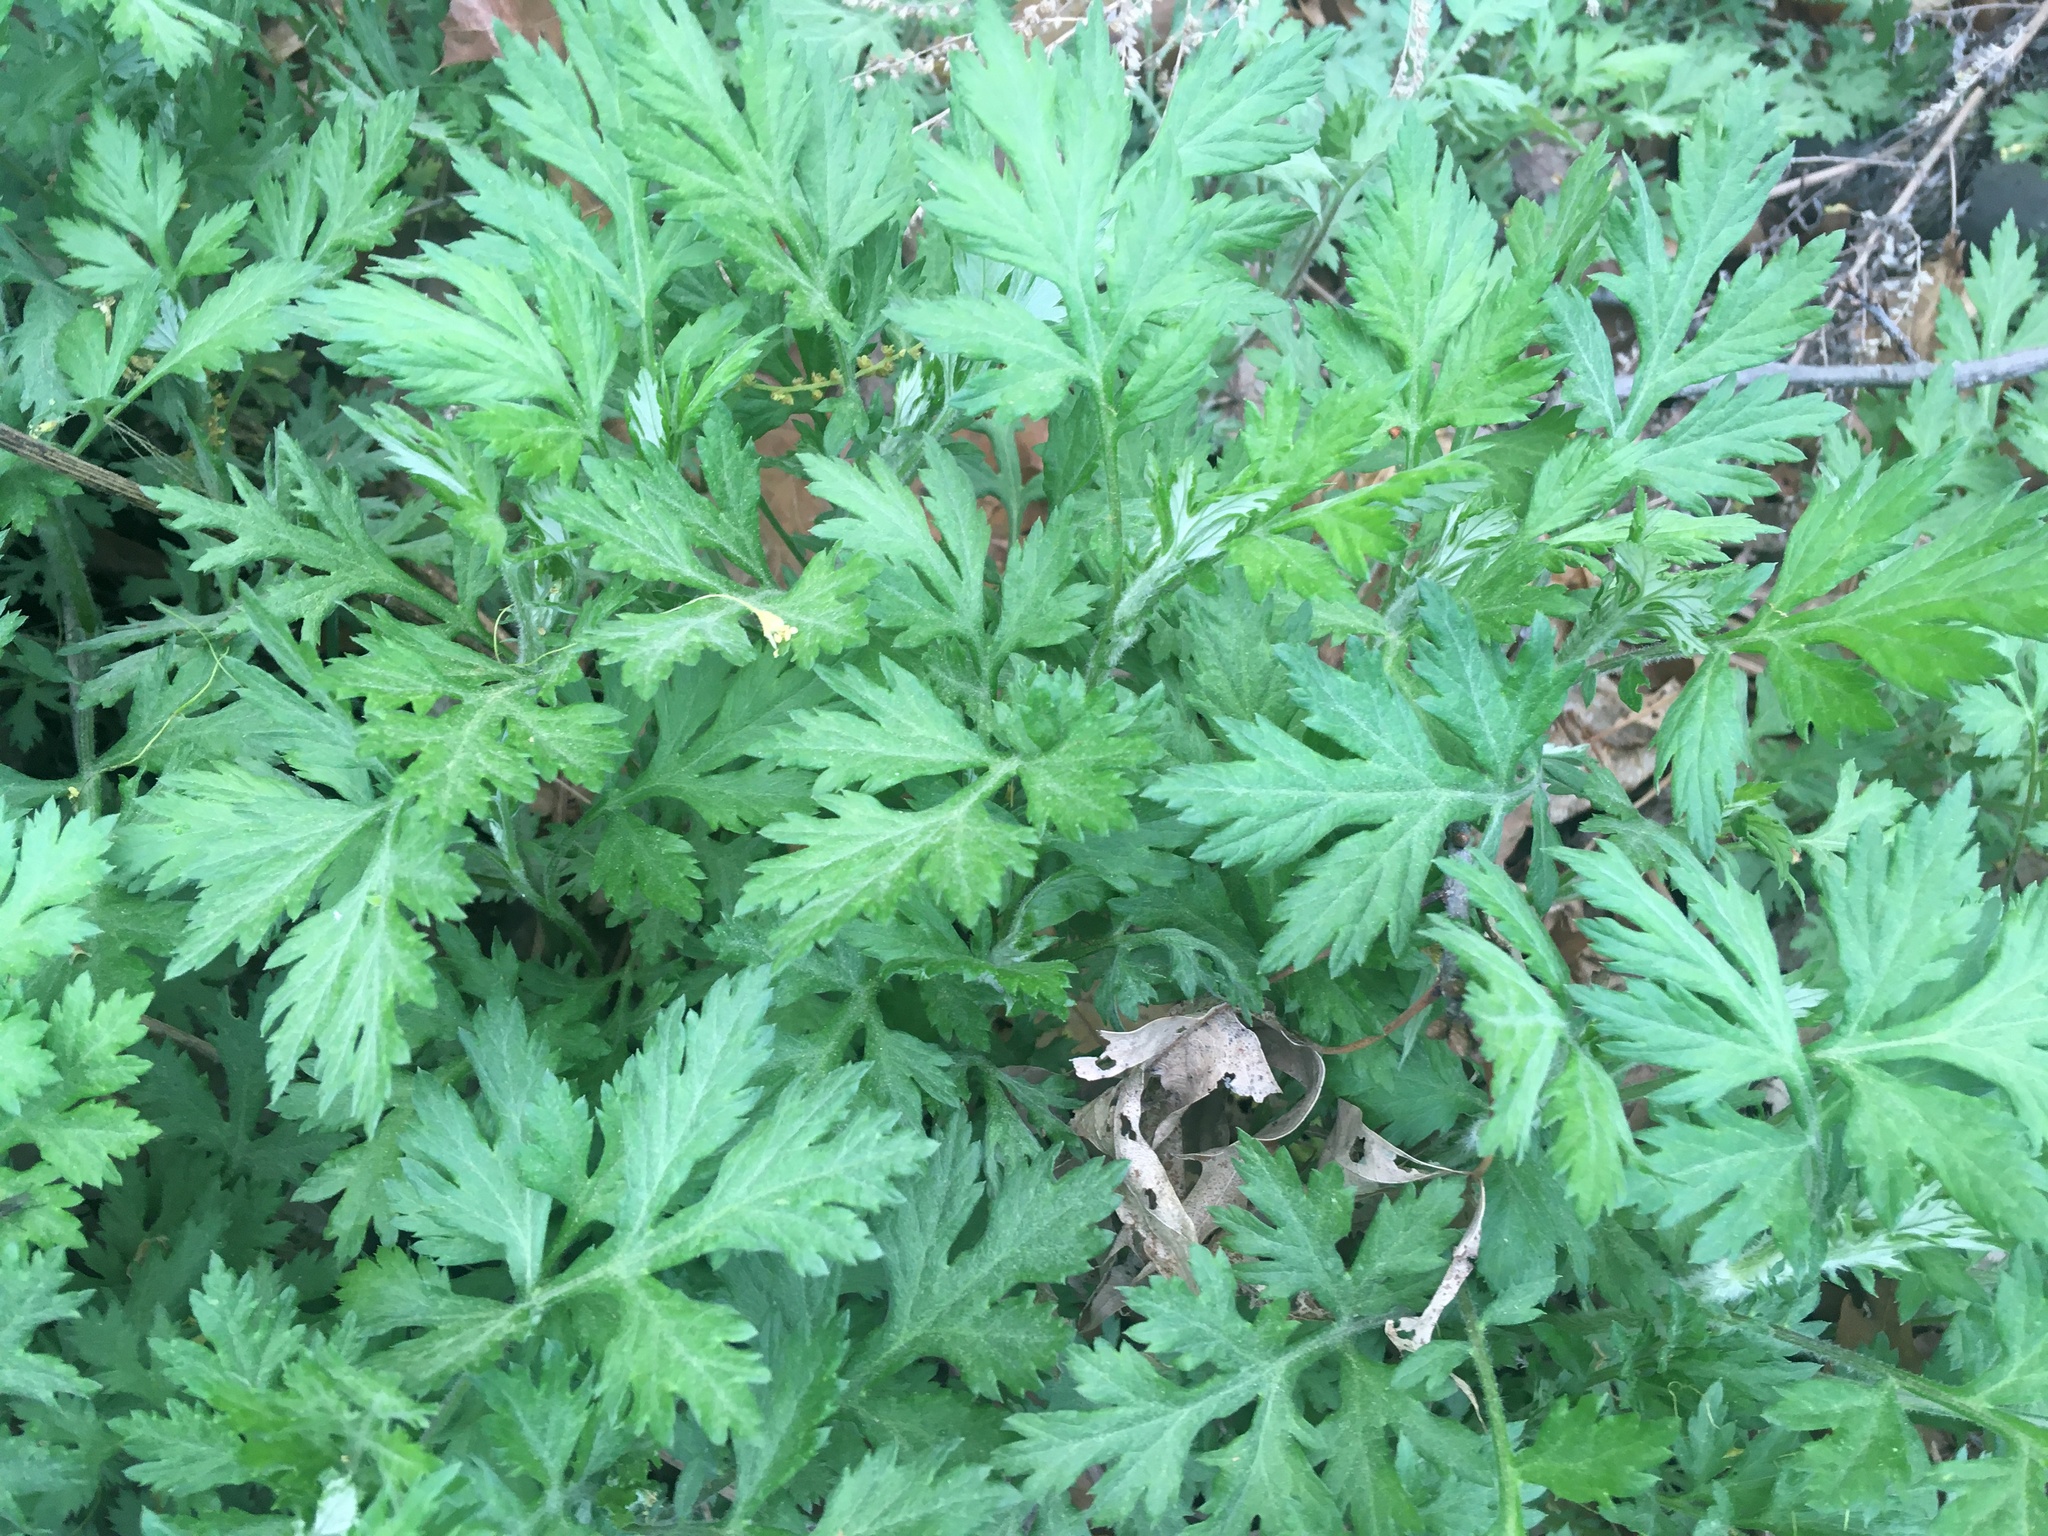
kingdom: Plantae
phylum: Tracheophyta
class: Magnoliopsida
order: Asterales
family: Asteraceae
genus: Artemisia
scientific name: Artemisia vulgaris
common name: Mugwort
